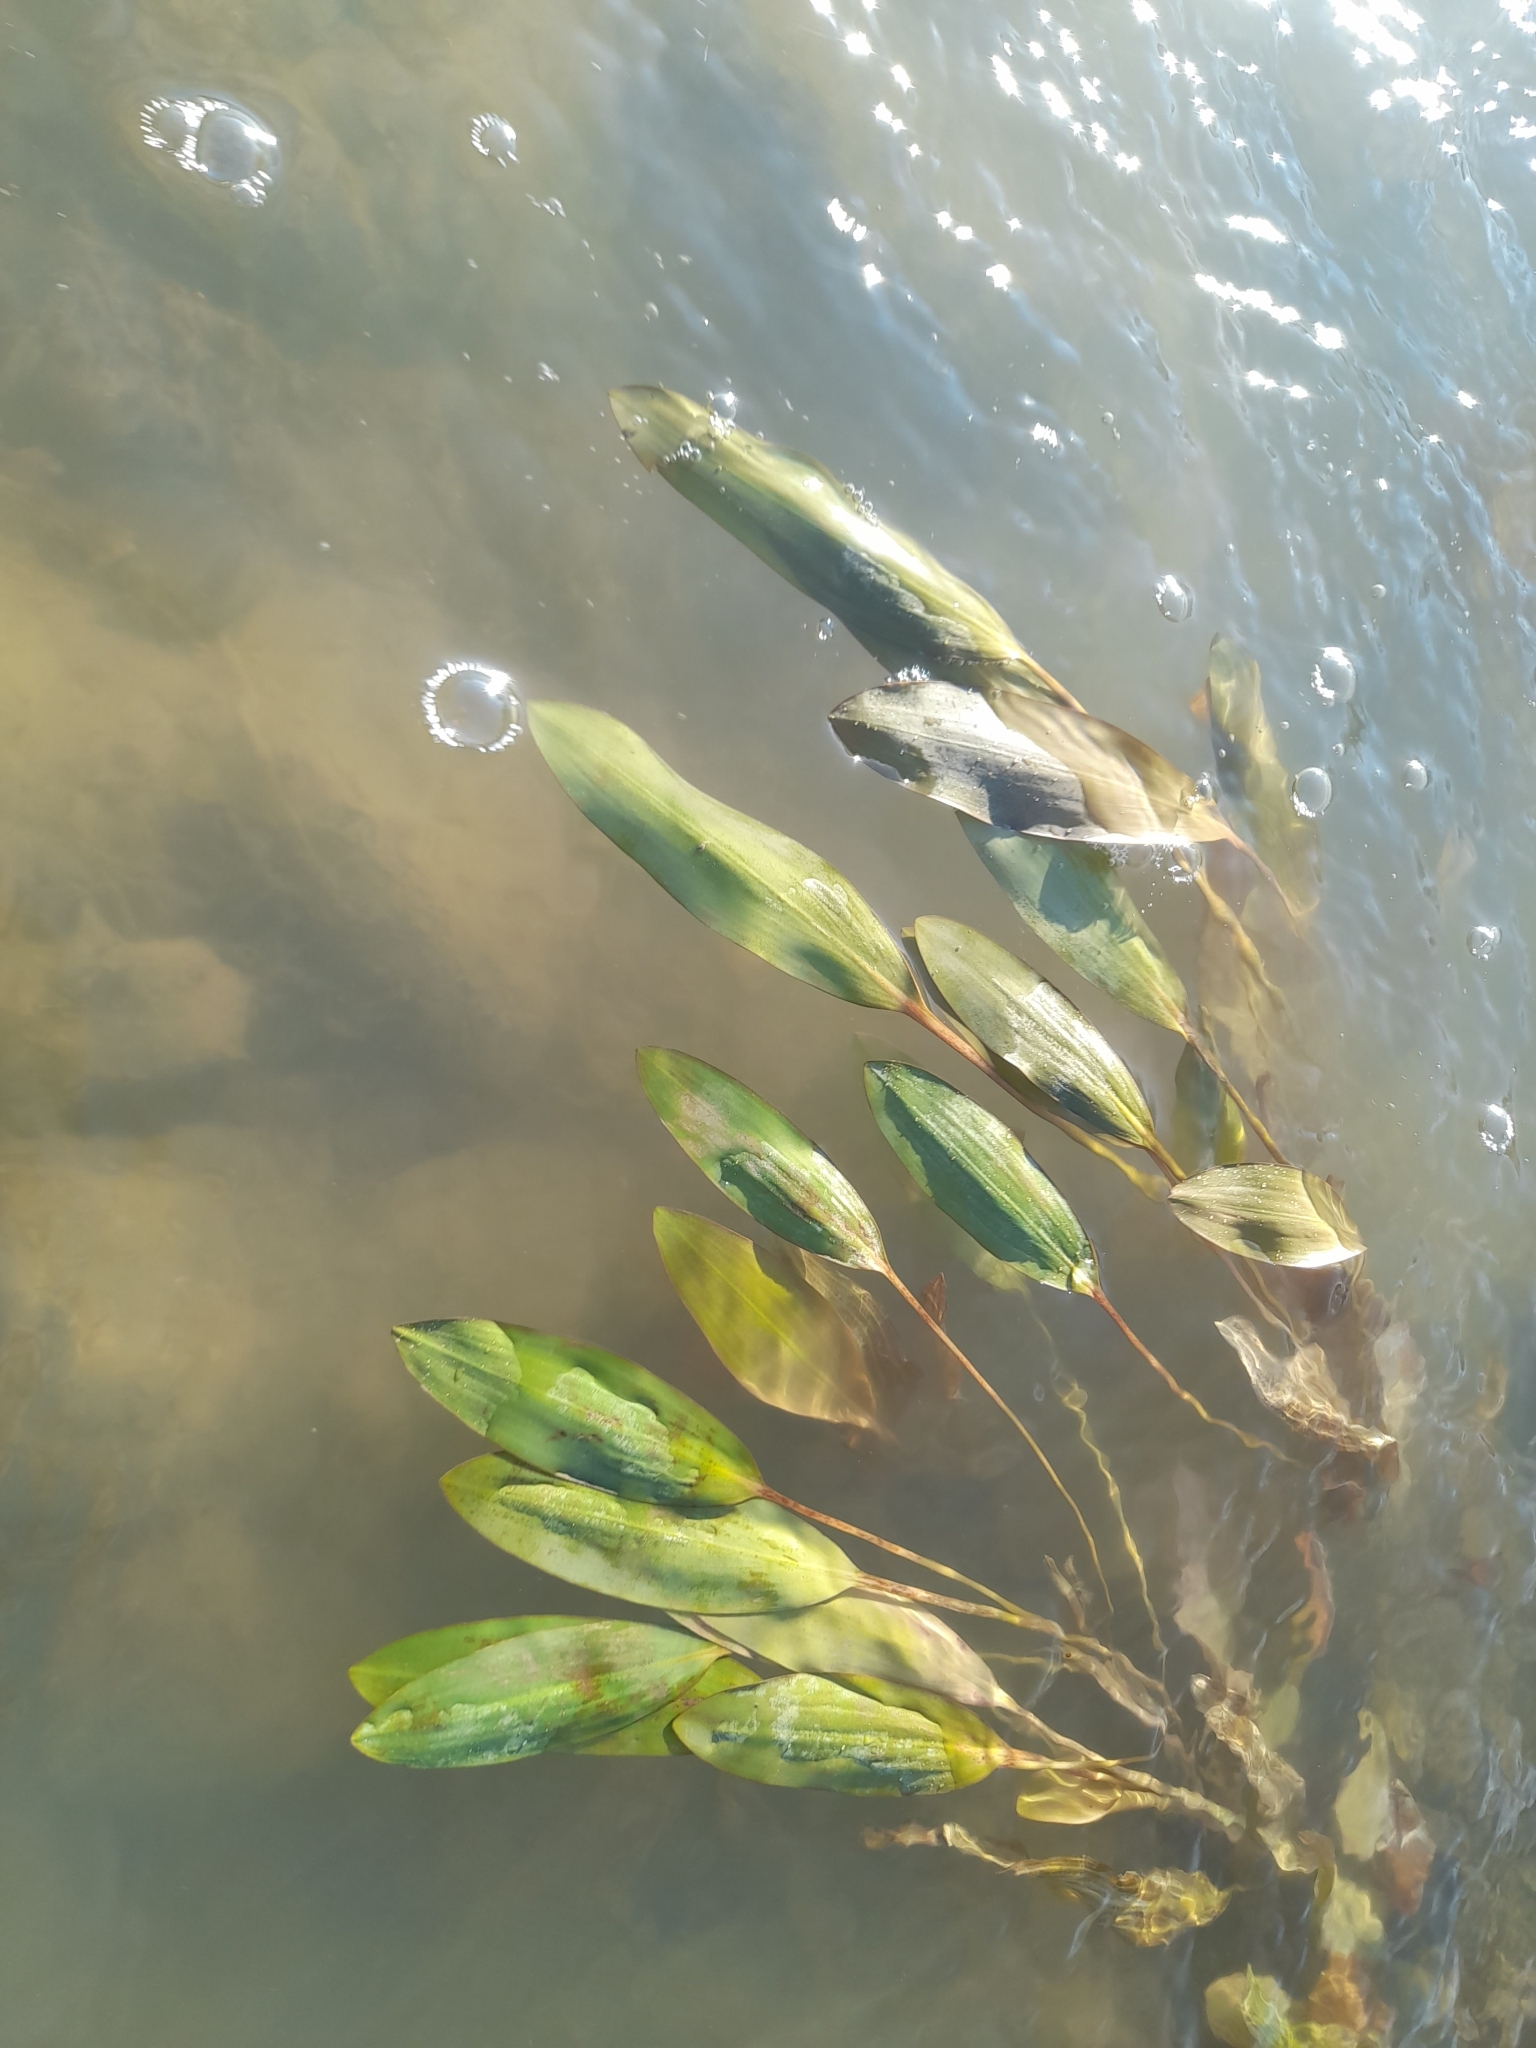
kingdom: Plantae
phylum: Tracheophyta
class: Liliopsida
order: Alismatales
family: Potamogetonaceae
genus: Potamogeton
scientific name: Potamogeton nodosus
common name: Loddon pondweed
